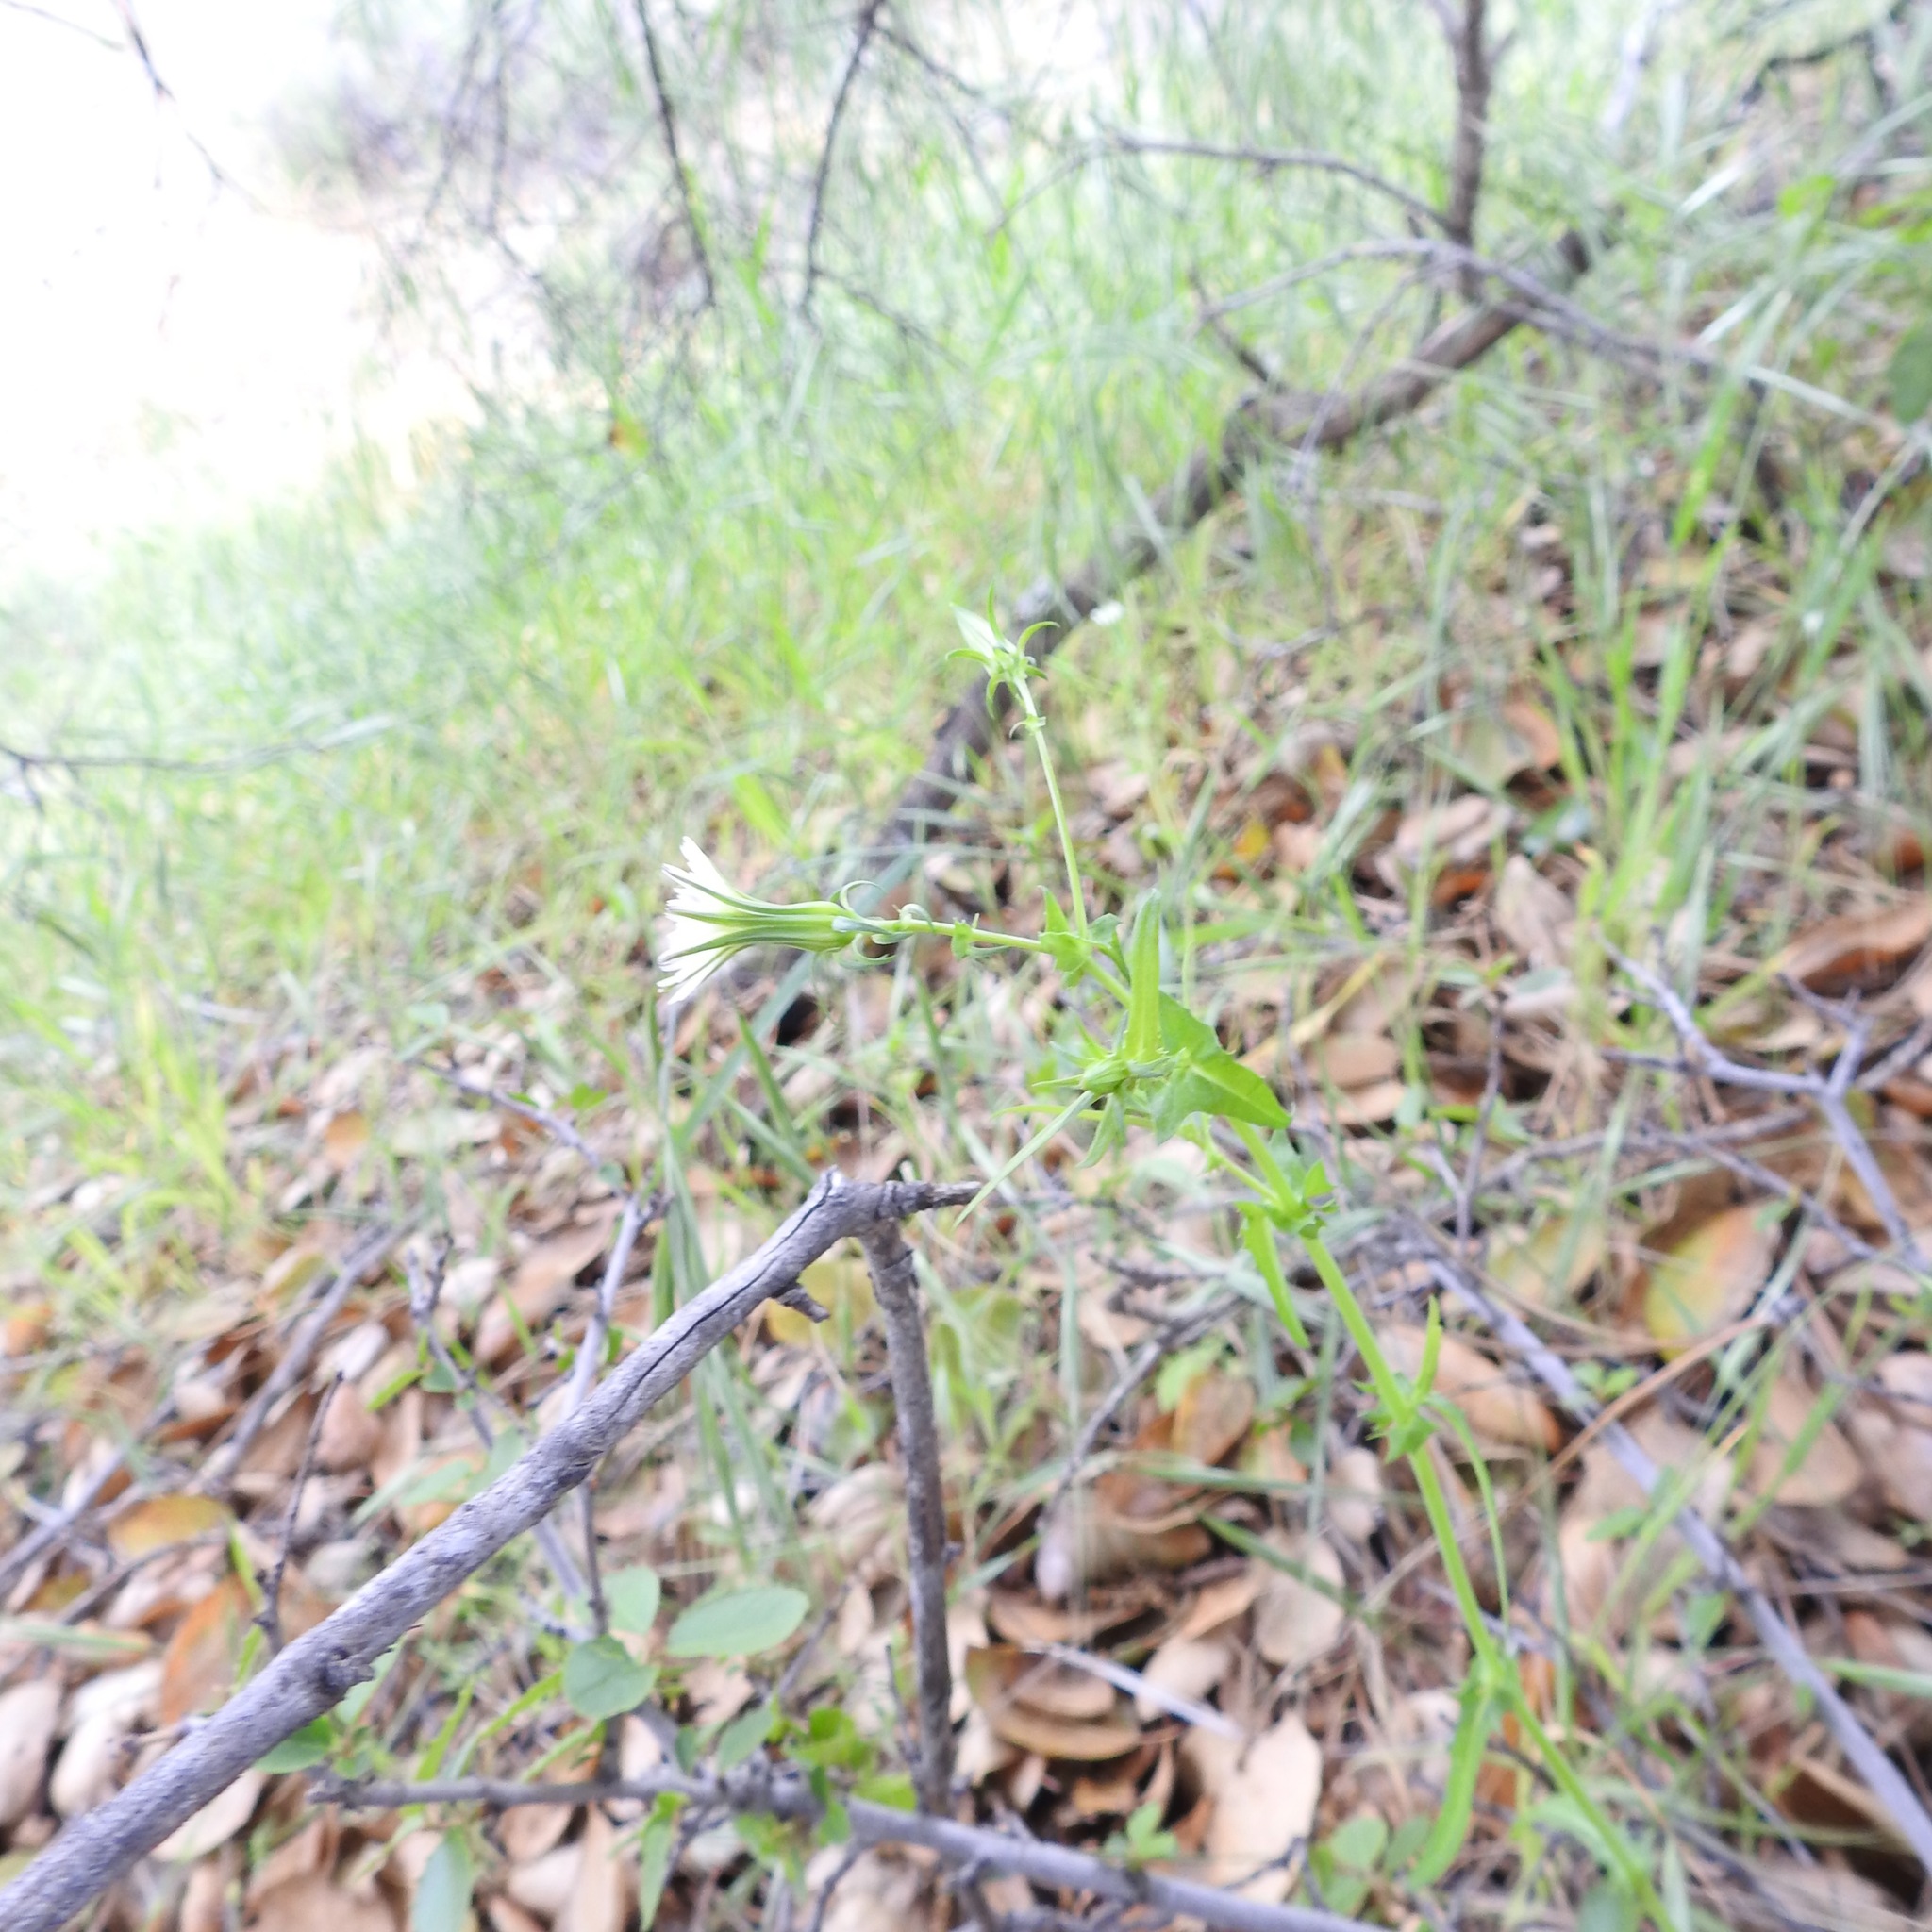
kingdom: Plantae
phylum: Tracheophyta
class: Magnoliopsida
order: Asterales
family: Asteraceae
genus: Rafinesquia
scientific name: Rafinesquia californica
